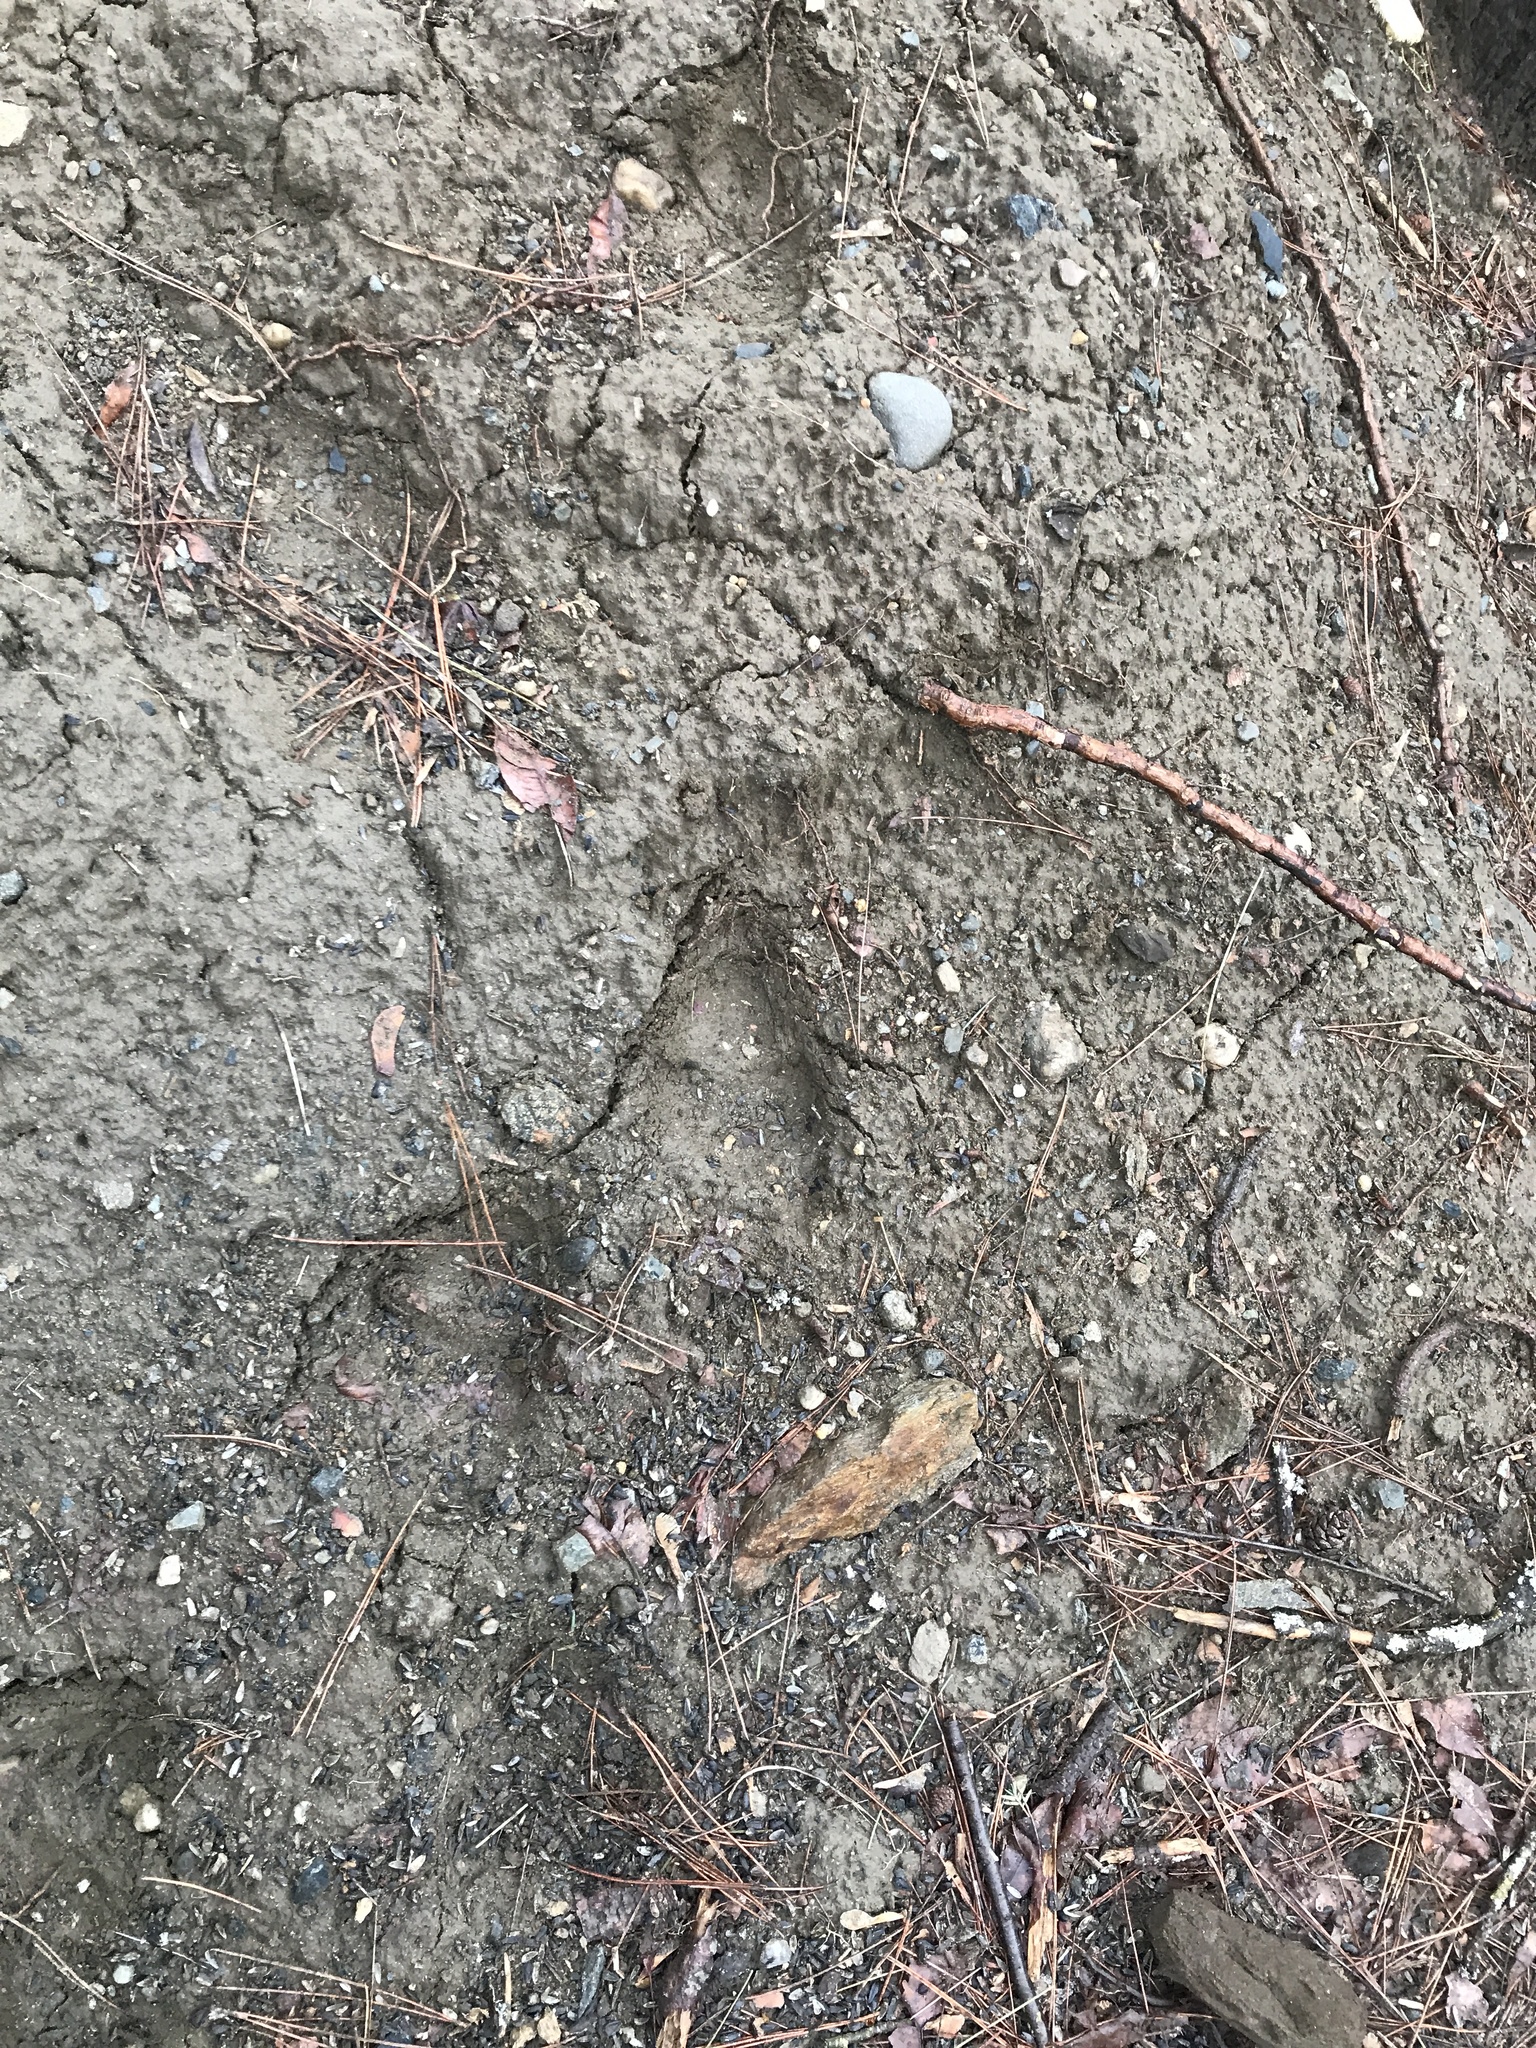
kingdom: Animalia
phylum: Chordata
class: Mammalia
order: Carnivora
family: Ursidae
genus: Ursus
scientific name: Ursus americanus
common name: American black bear
